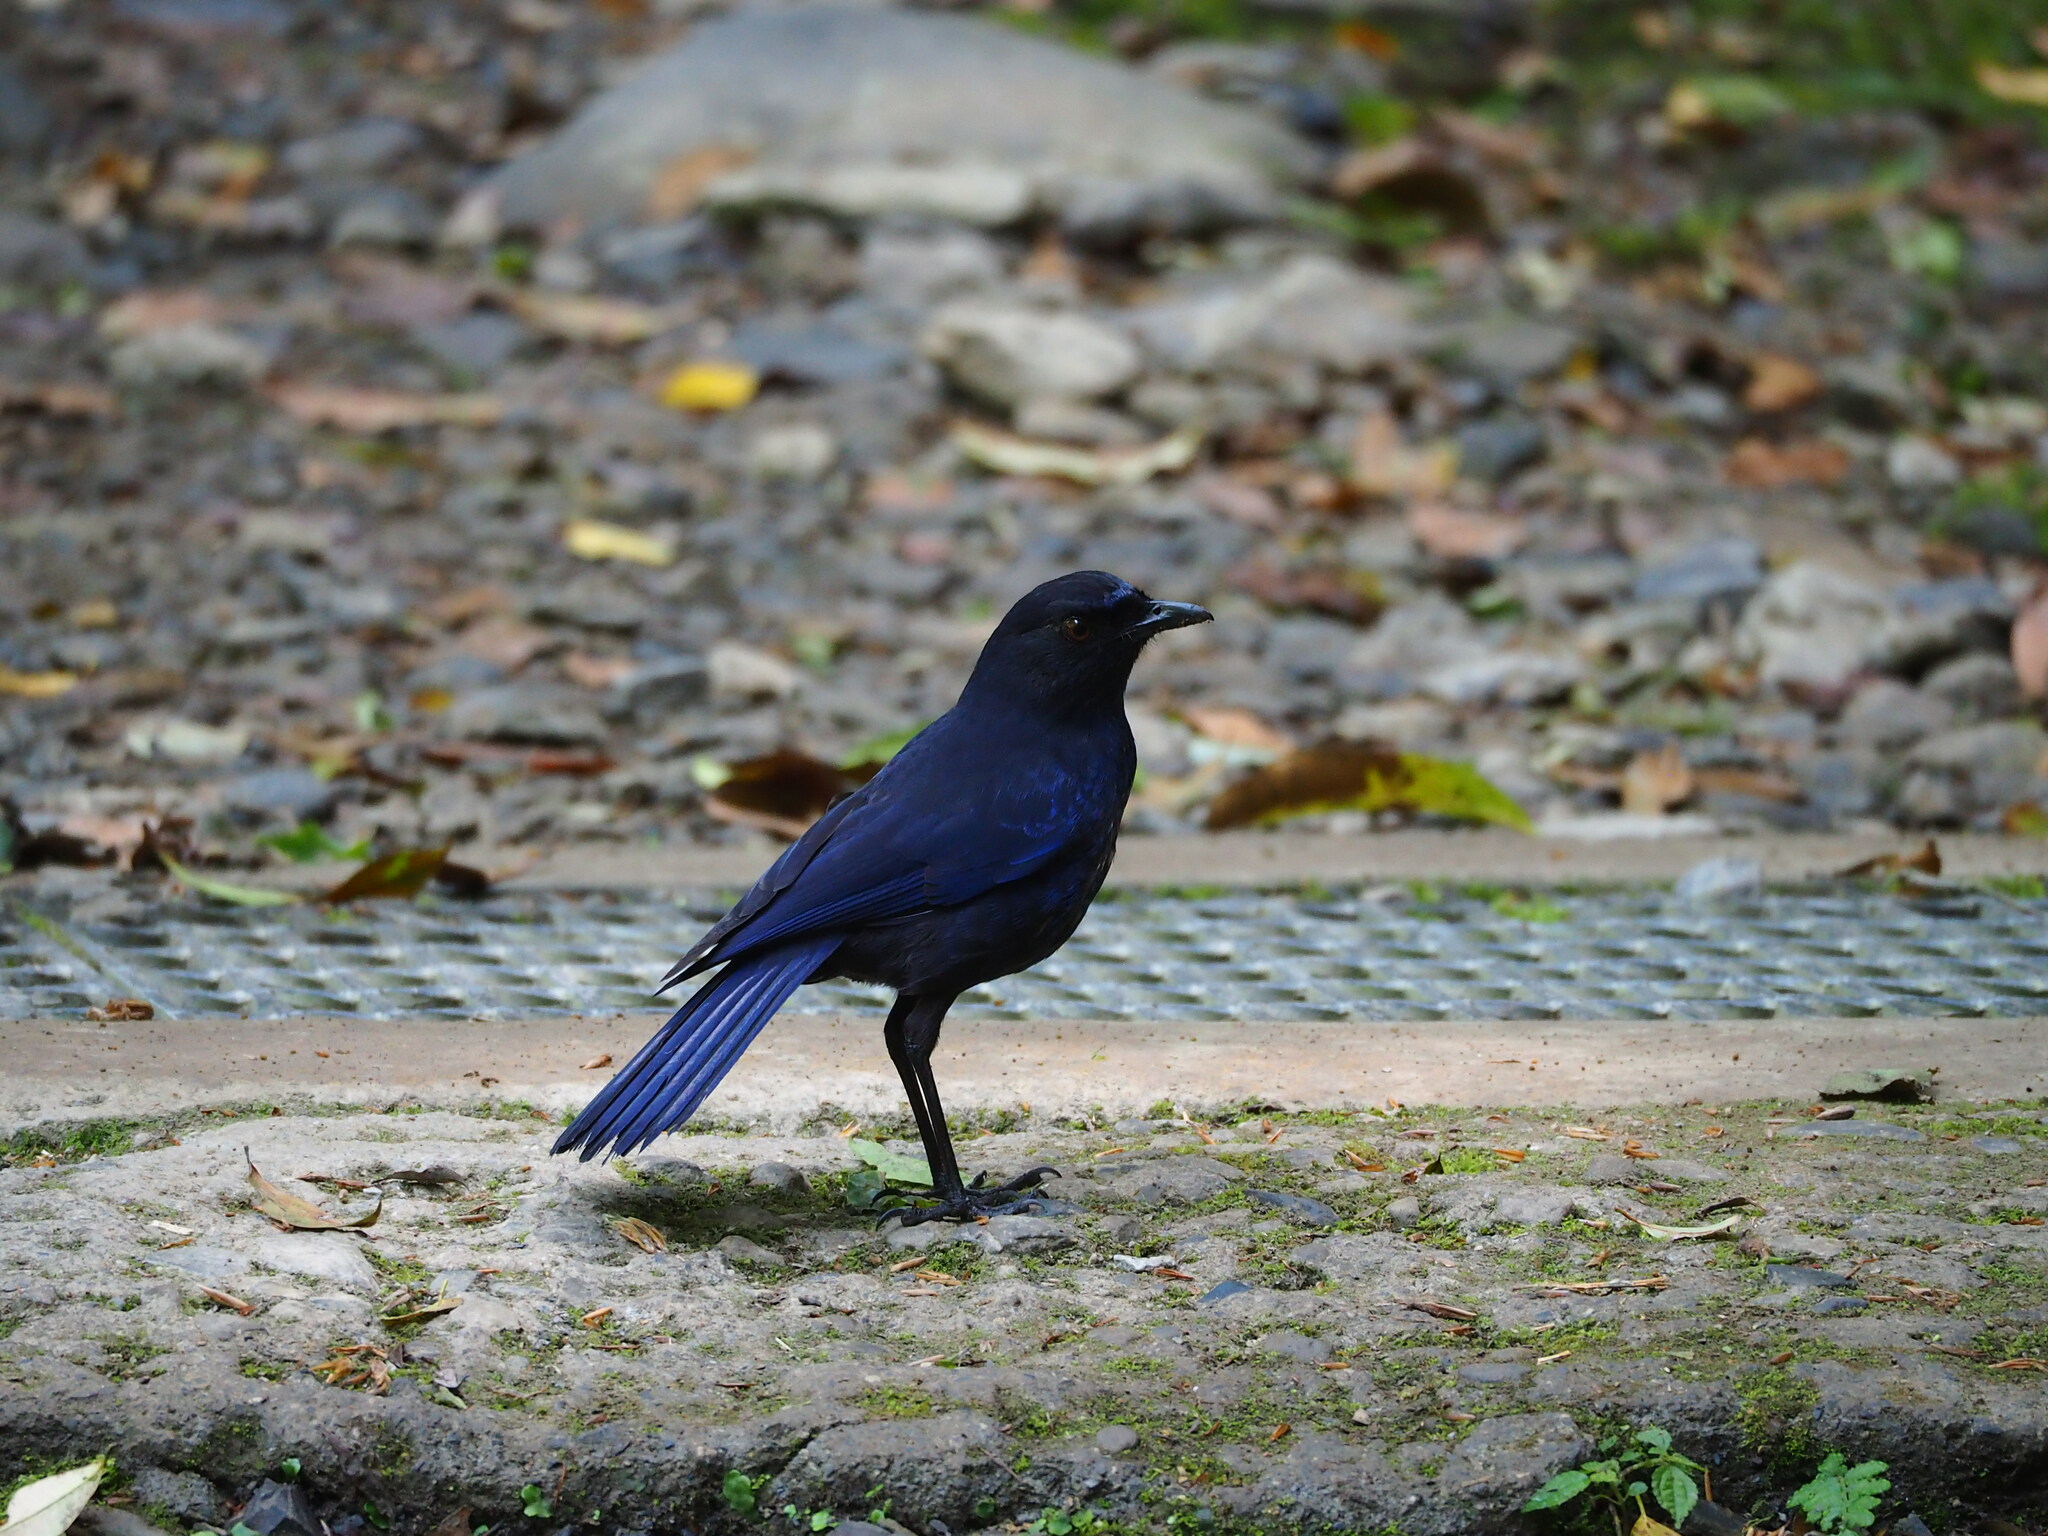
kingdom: Animalia
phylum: Chordata
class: Aves
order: Passeriformes
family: Muscicapidae
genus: Myophonus
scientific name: Myophonus insularis
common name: Taiwan whistling-thrush
